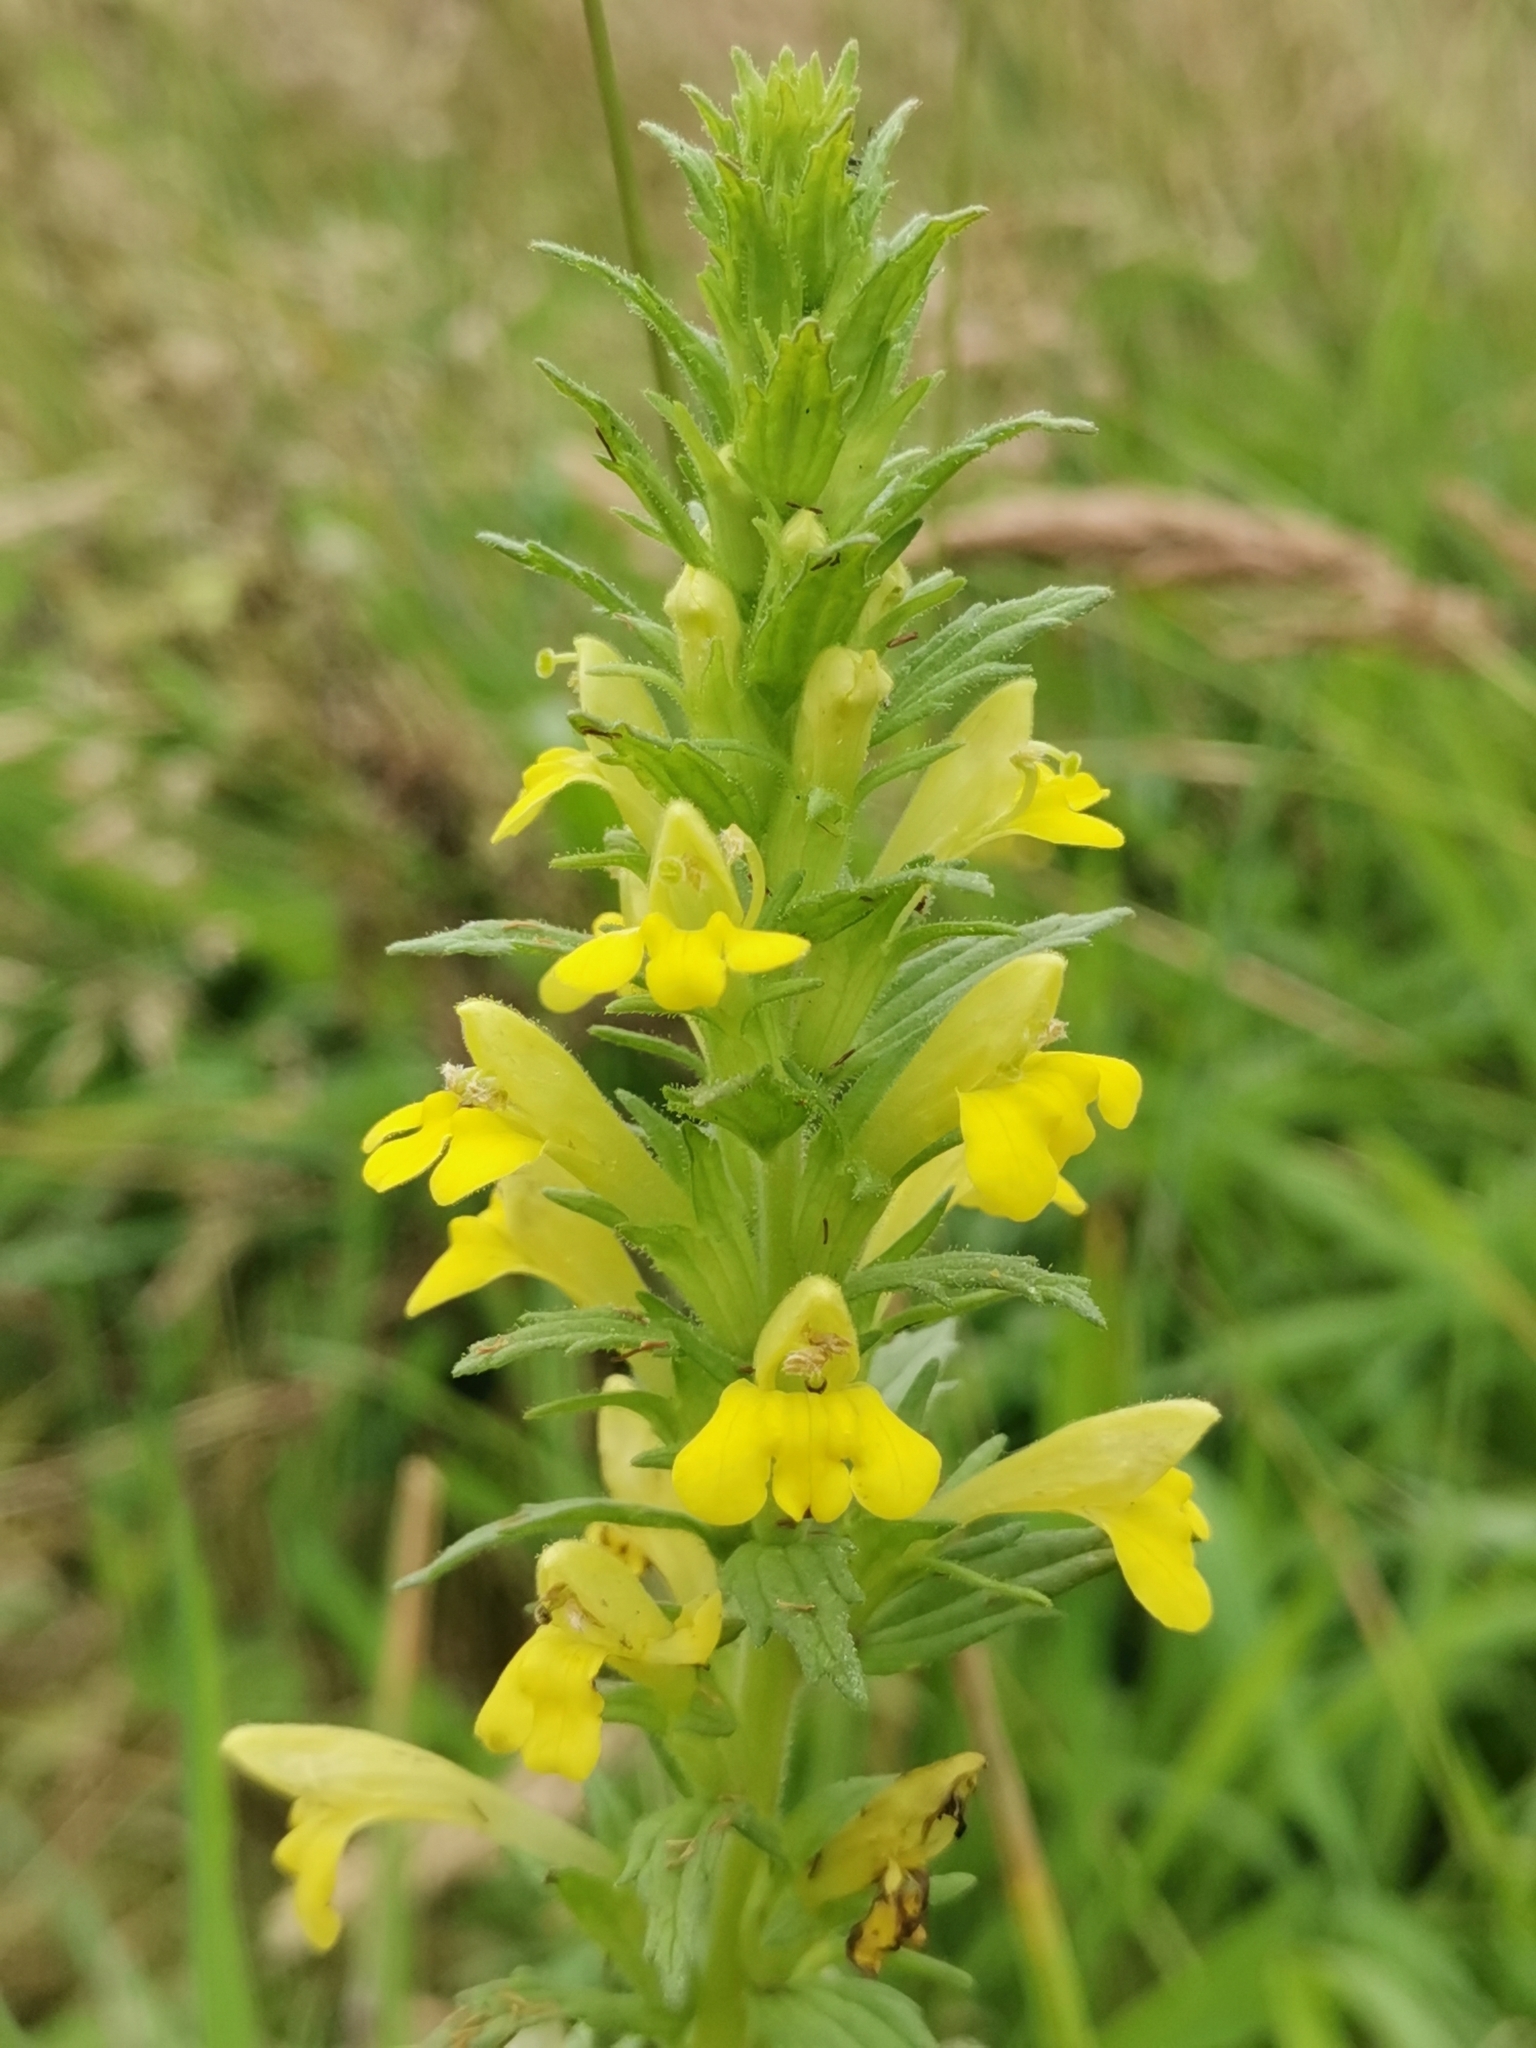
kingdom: Plantae
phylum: Tracheophyta
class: Magnoliopsida
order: Lamiales
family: Orobanchaceae
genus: Bellardia
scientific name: Bellardia viscosa
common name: Sticky parentucellia
